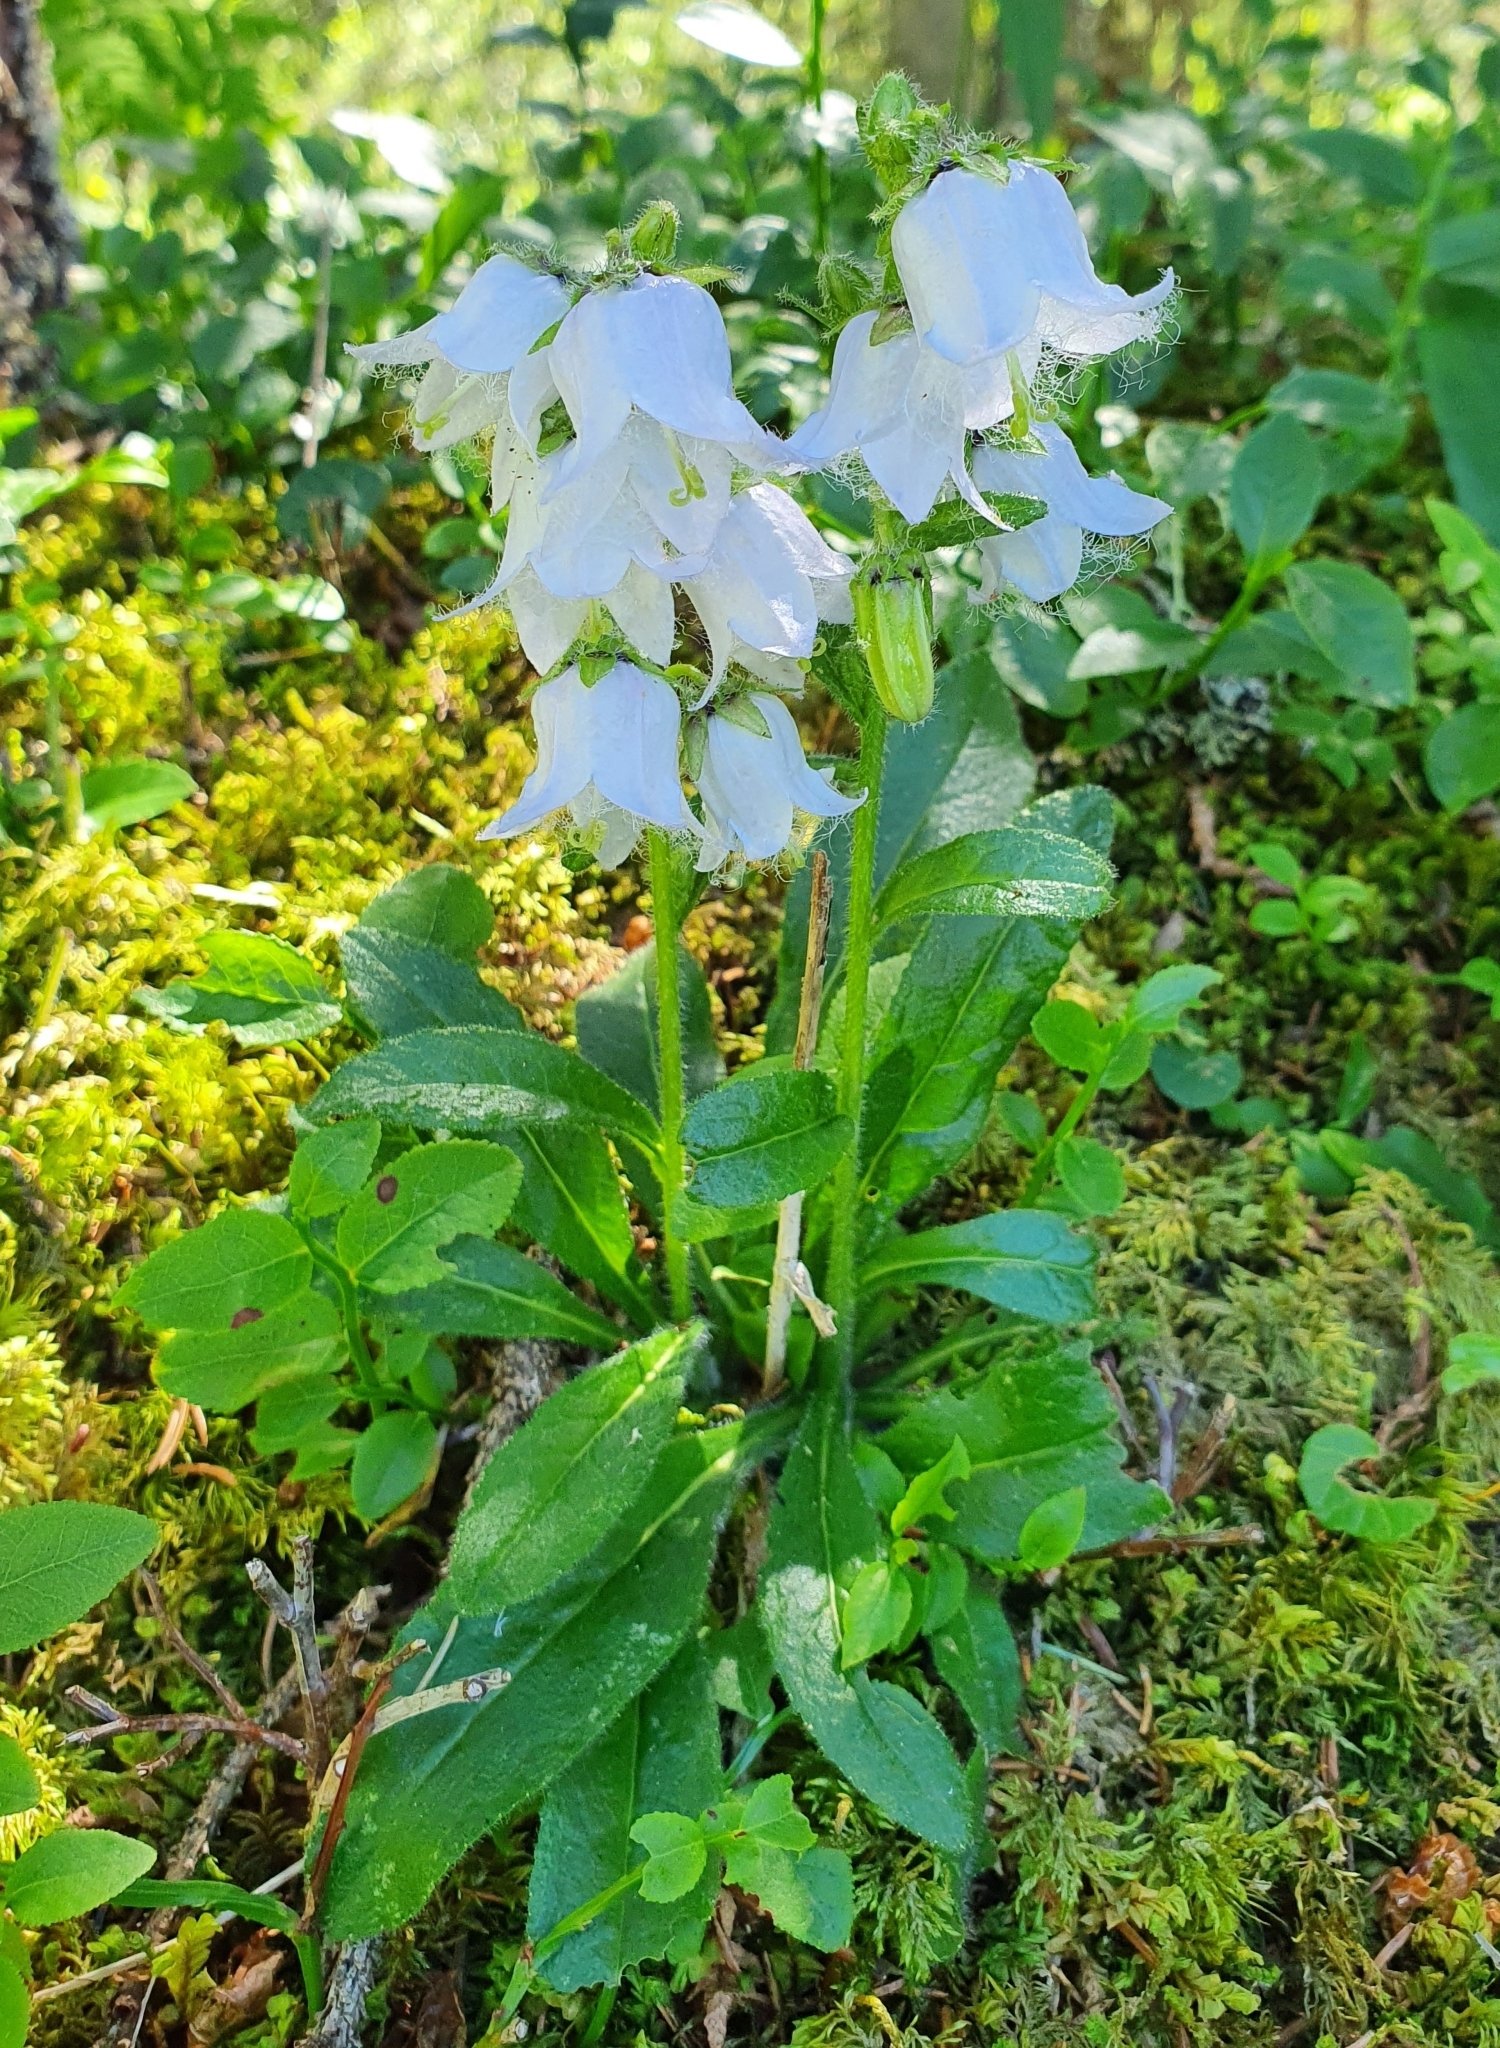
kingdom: Plantae
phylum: Tracheophyta
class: Magnoliopsida
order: Asterales
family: Campanulaceae
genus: Campanula
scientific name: Campanula barbata
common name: Bearded bellflower
